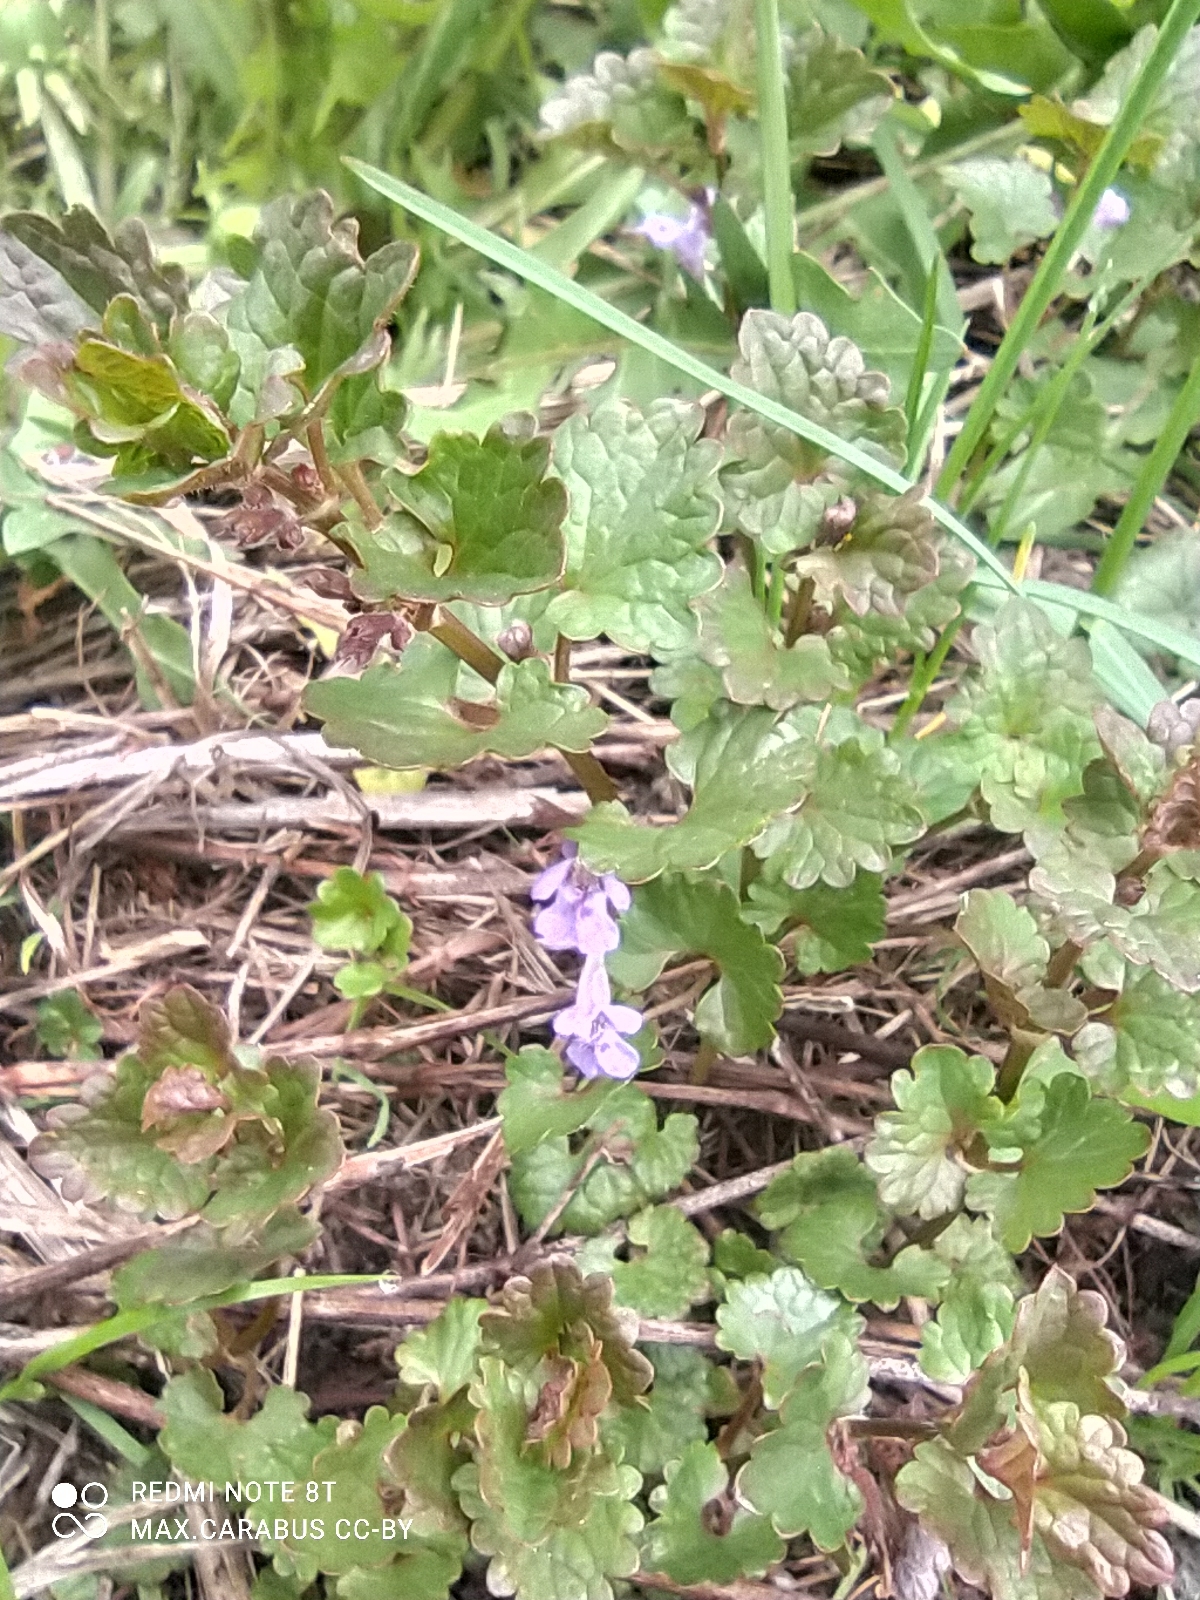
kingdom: Plantae
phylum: Tracheophyta
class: Magnoliopsida
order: Lamiales
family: Lamiaceae
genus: Glechoma
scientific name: Glechoma hederacea
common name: Ground ivy
